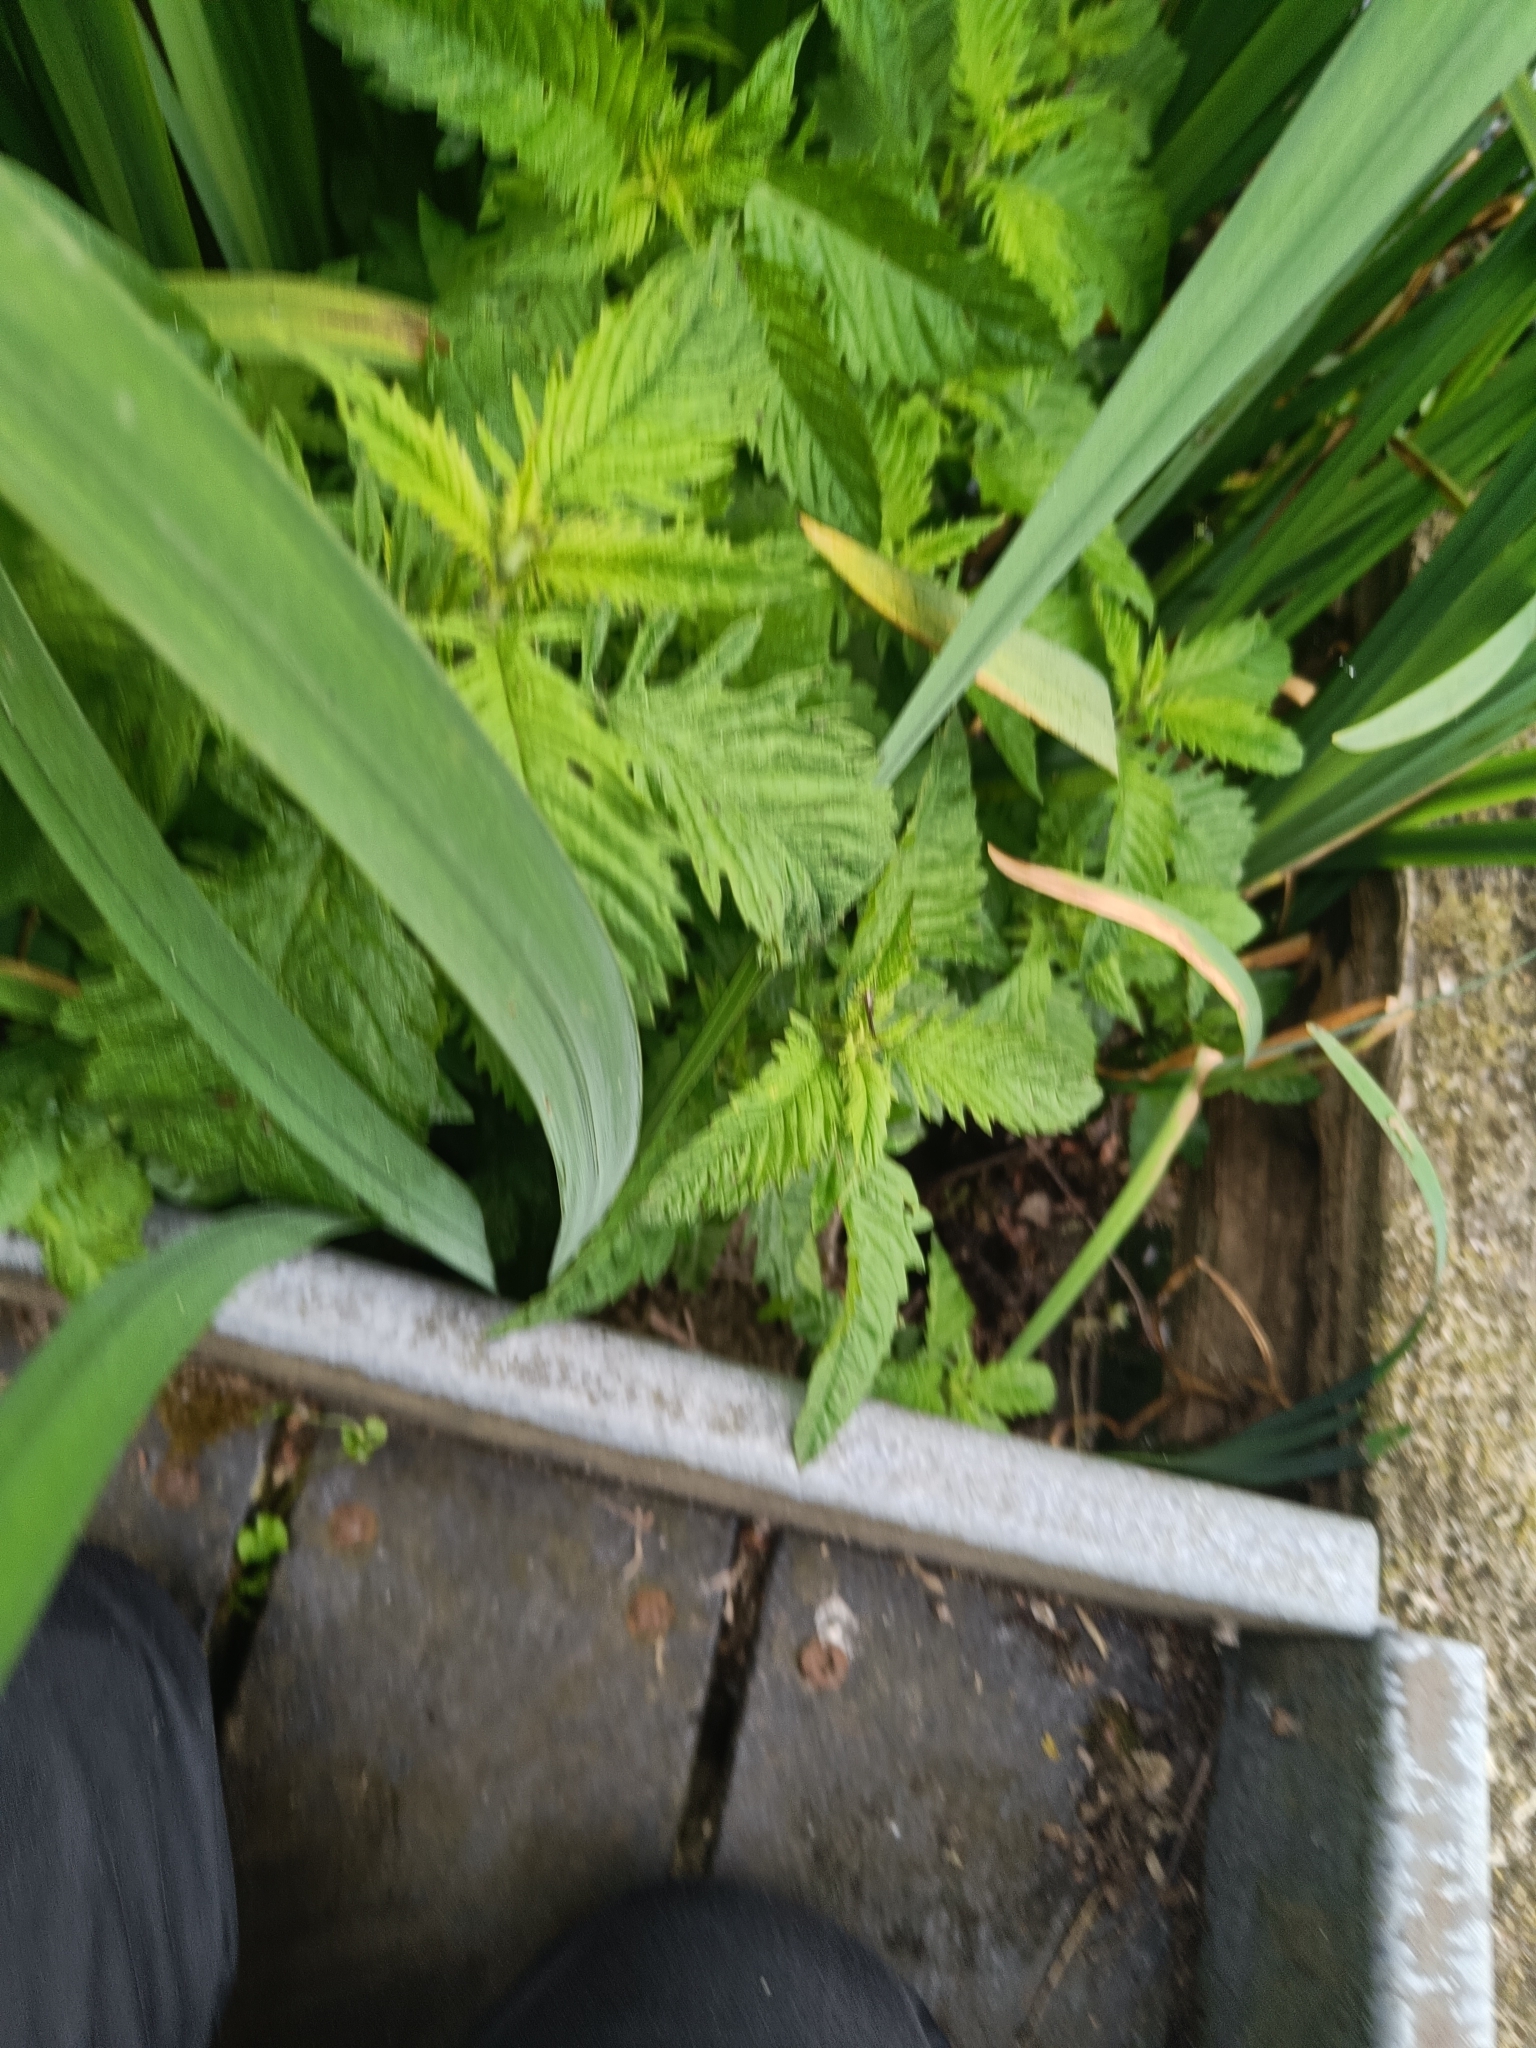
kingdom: Plantae
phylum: Tracheophyta
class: Magnoliopsida
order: Lamiales
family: Lamiaceae
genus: Lycopus
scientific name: Lycopus europaeus
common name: European bugleweed
